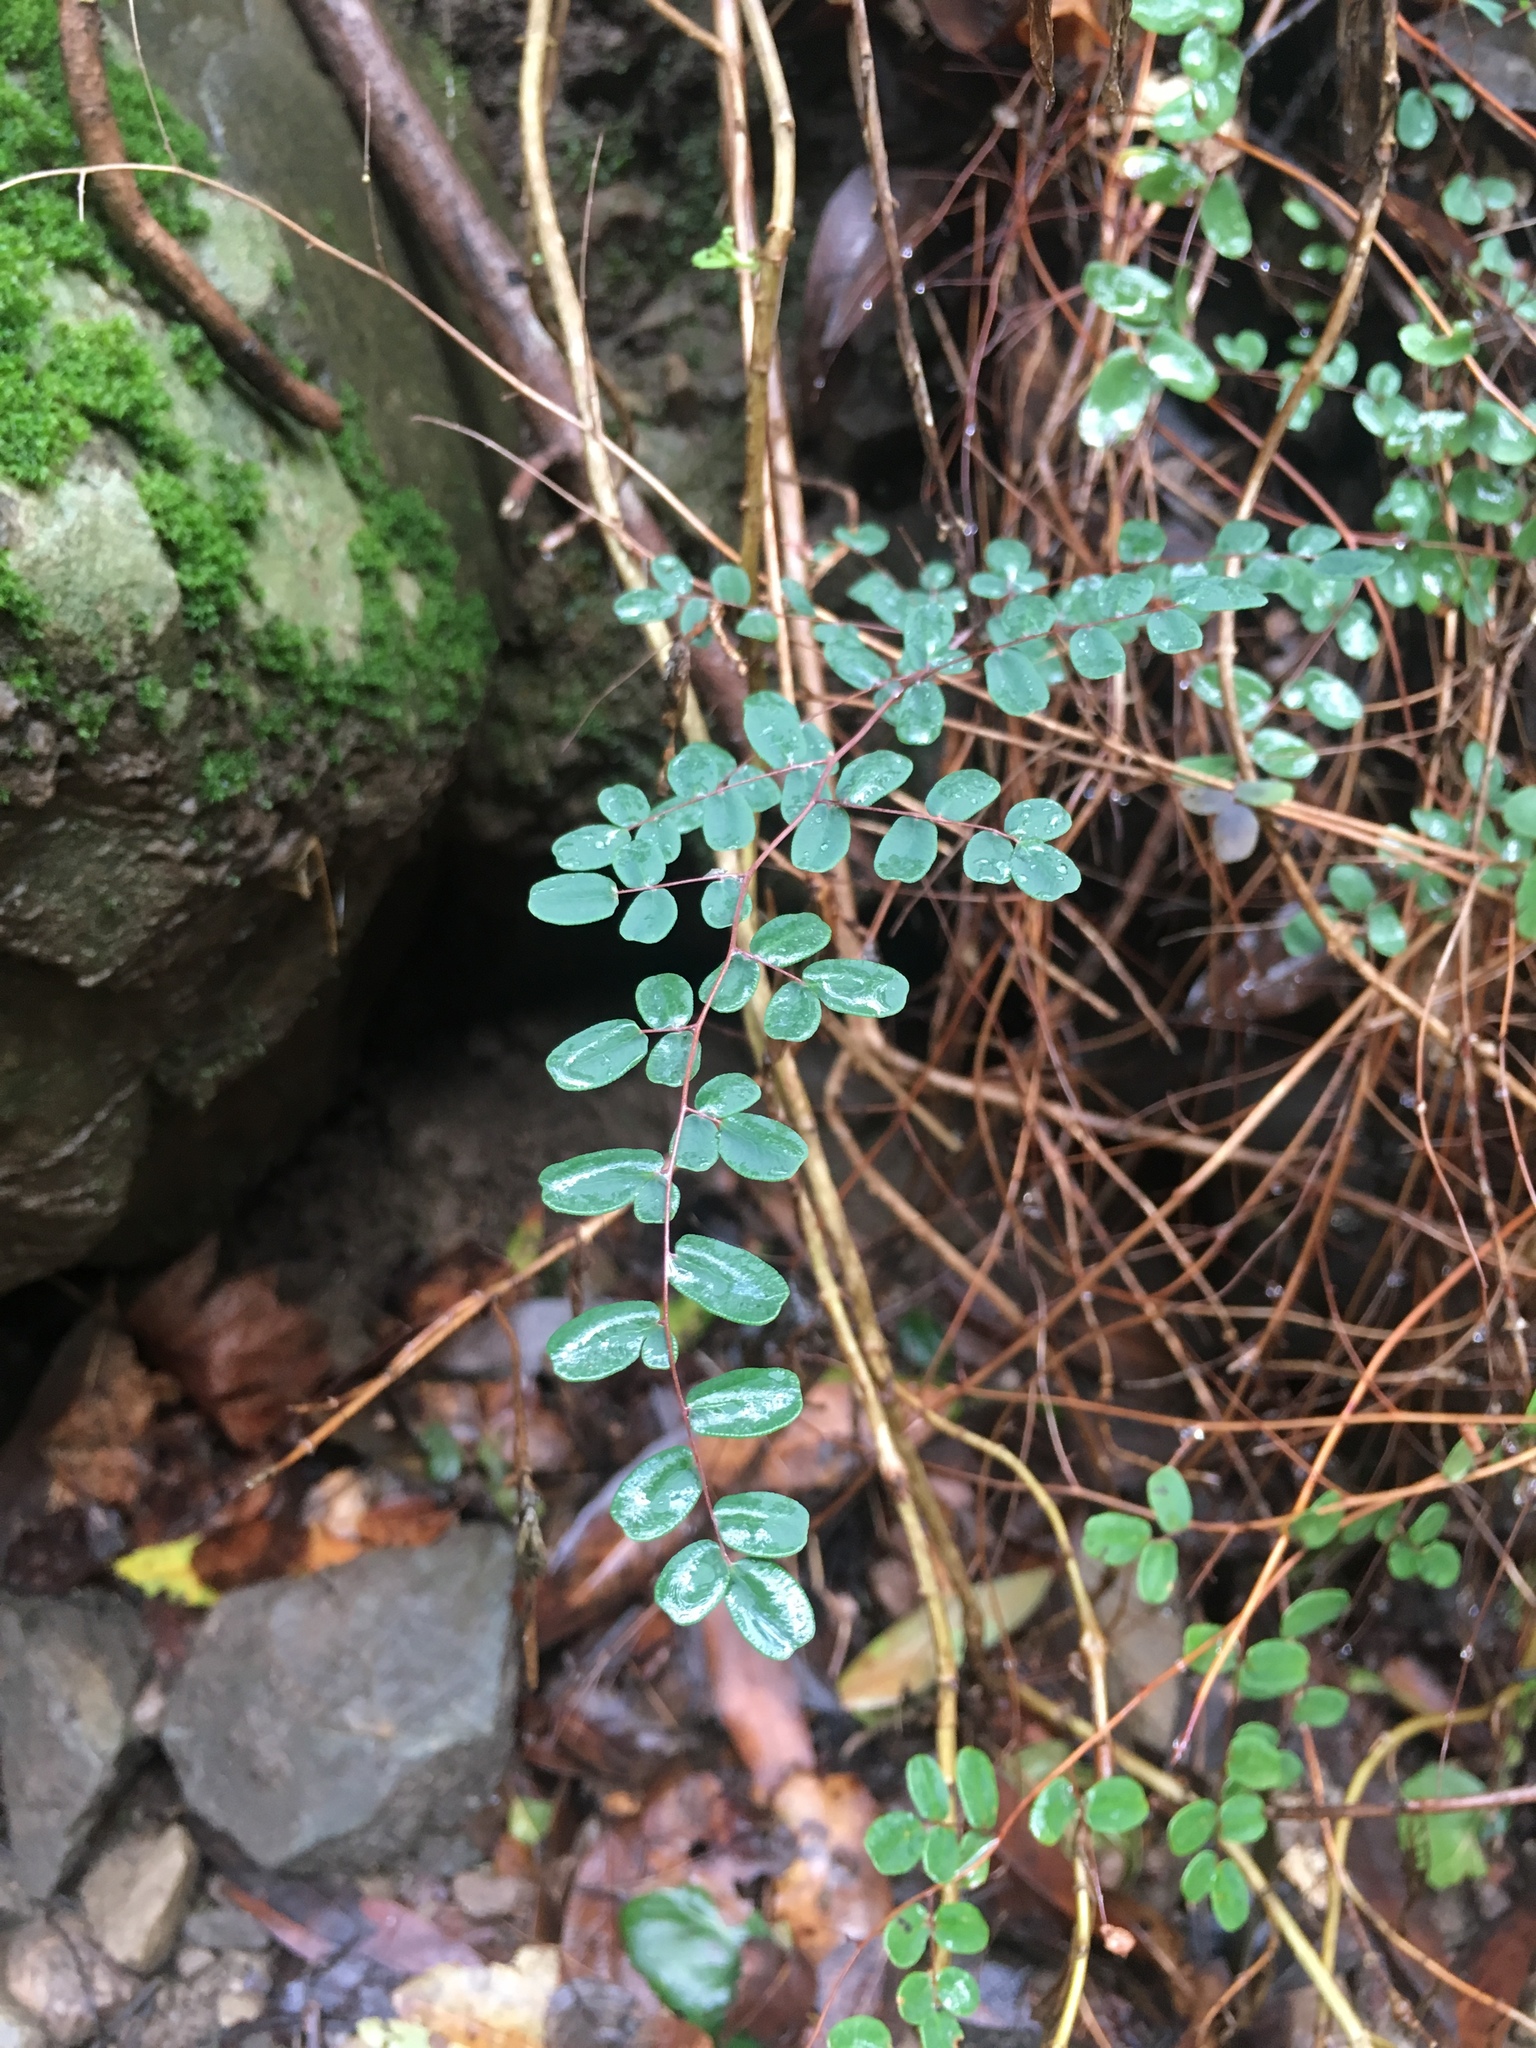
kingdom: Plantae
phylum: Tracheophyta
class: Polypodiopsida
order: Polypodiales
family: Pteridaceae
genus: Pellaea
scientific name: Pellaea andromedifolia
